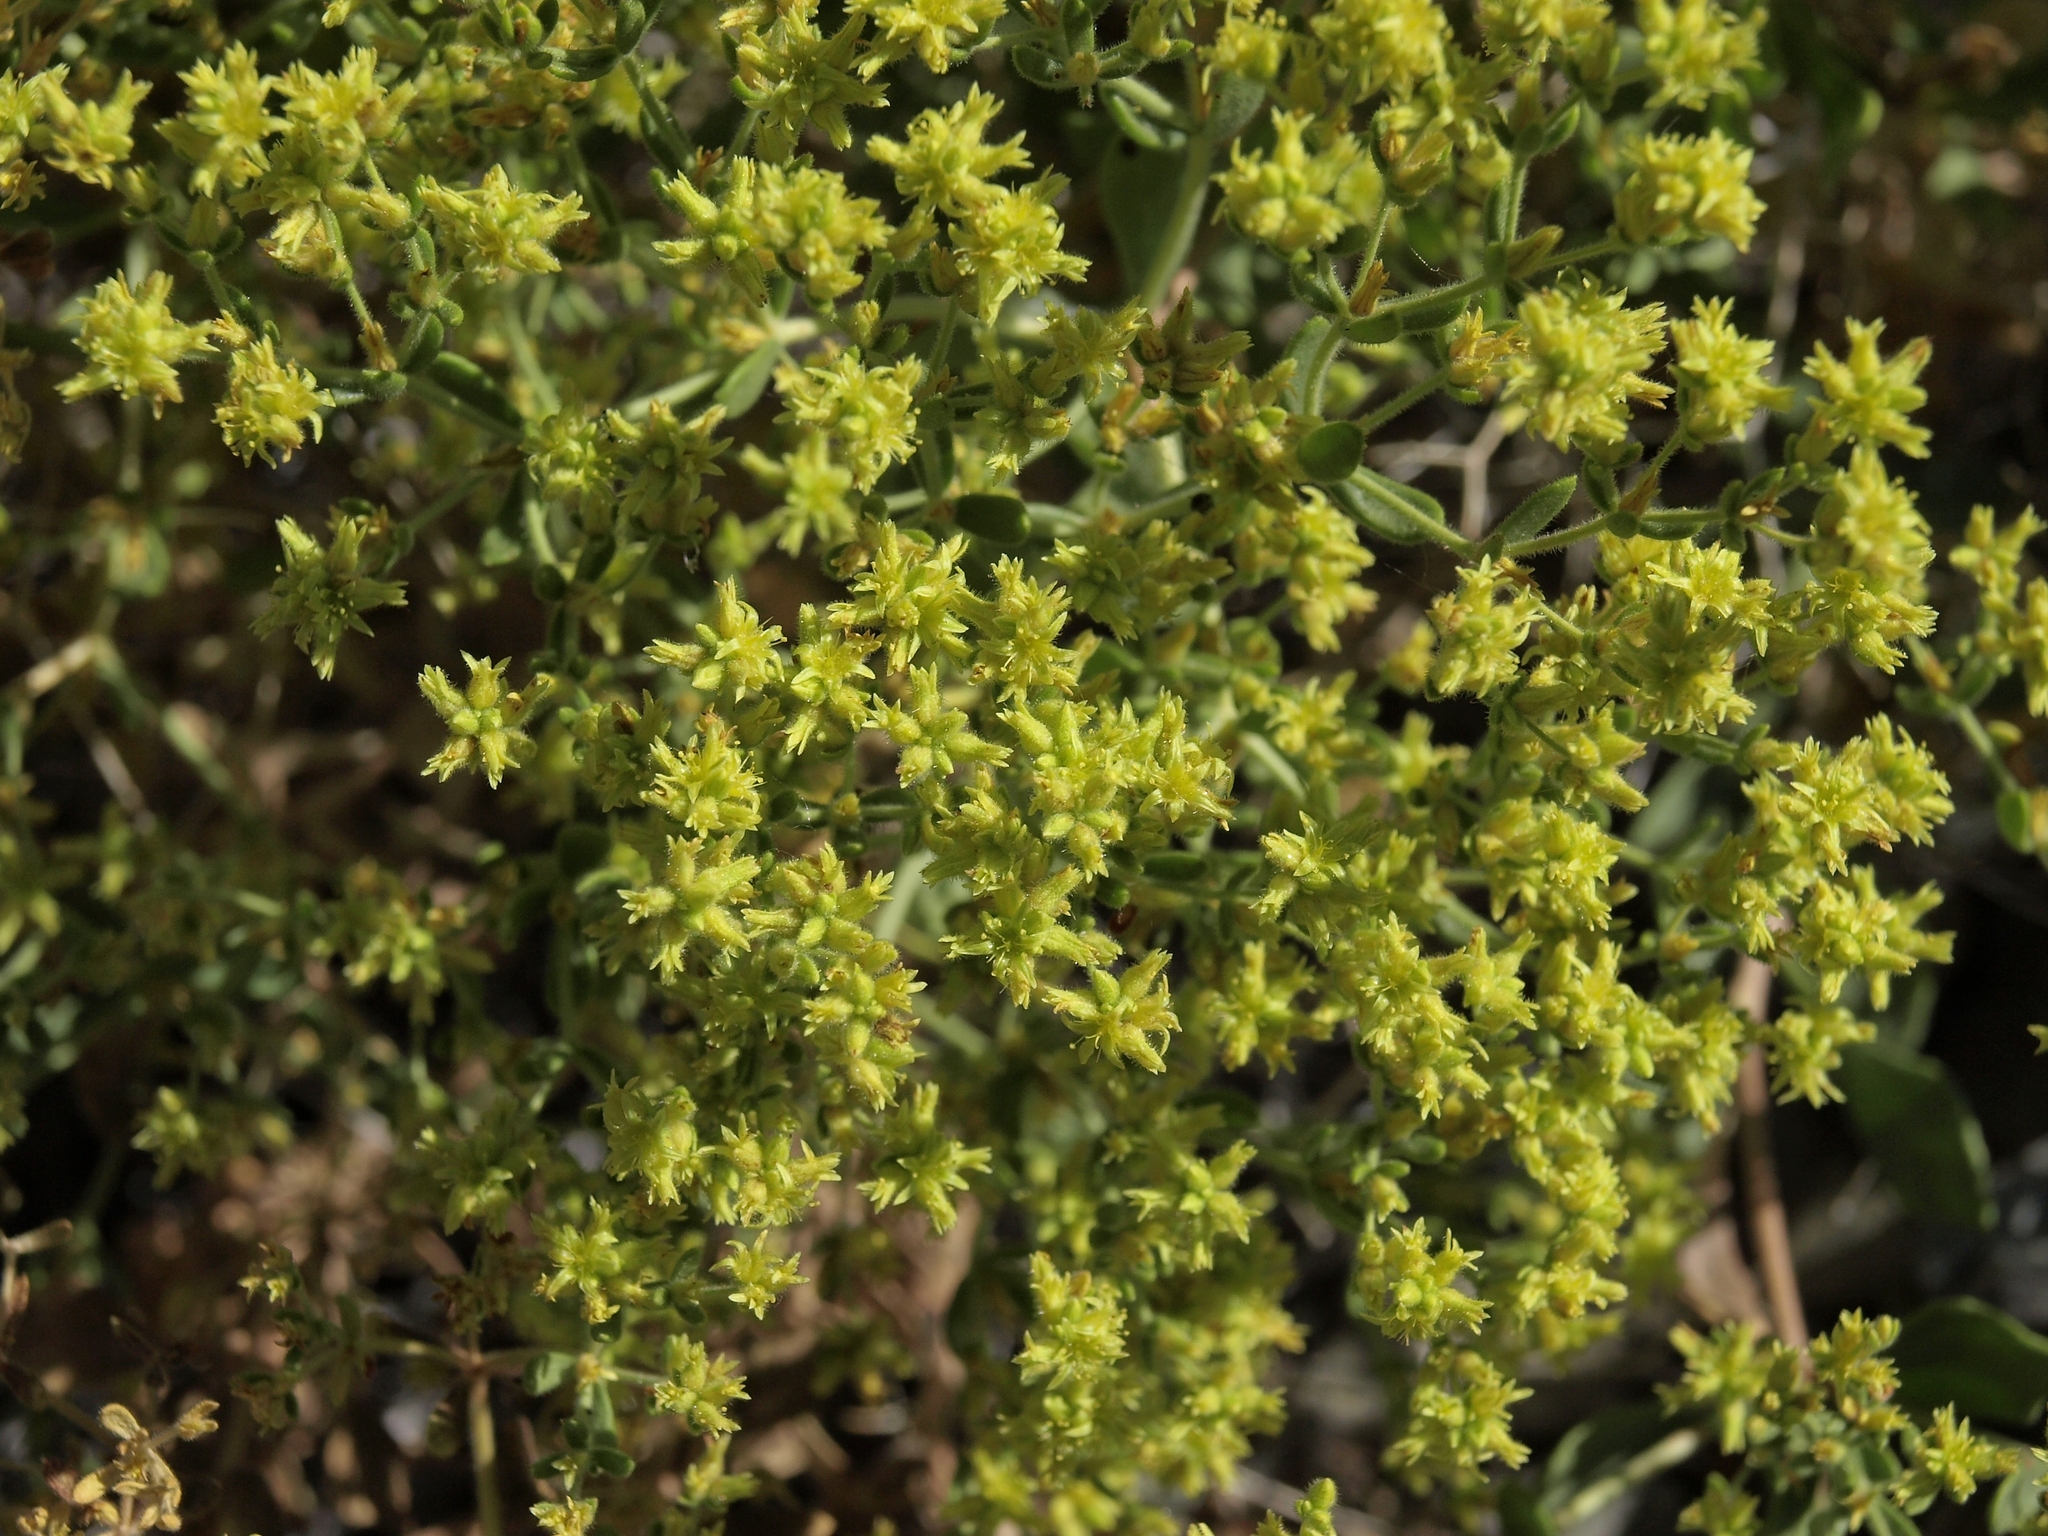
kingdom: Plantae
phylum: Tracheophyta
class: Magnoliopsida
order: Caryophyllales
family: Polygonaceae
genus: Dedeckera
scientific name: Dedeckera eurekensis
